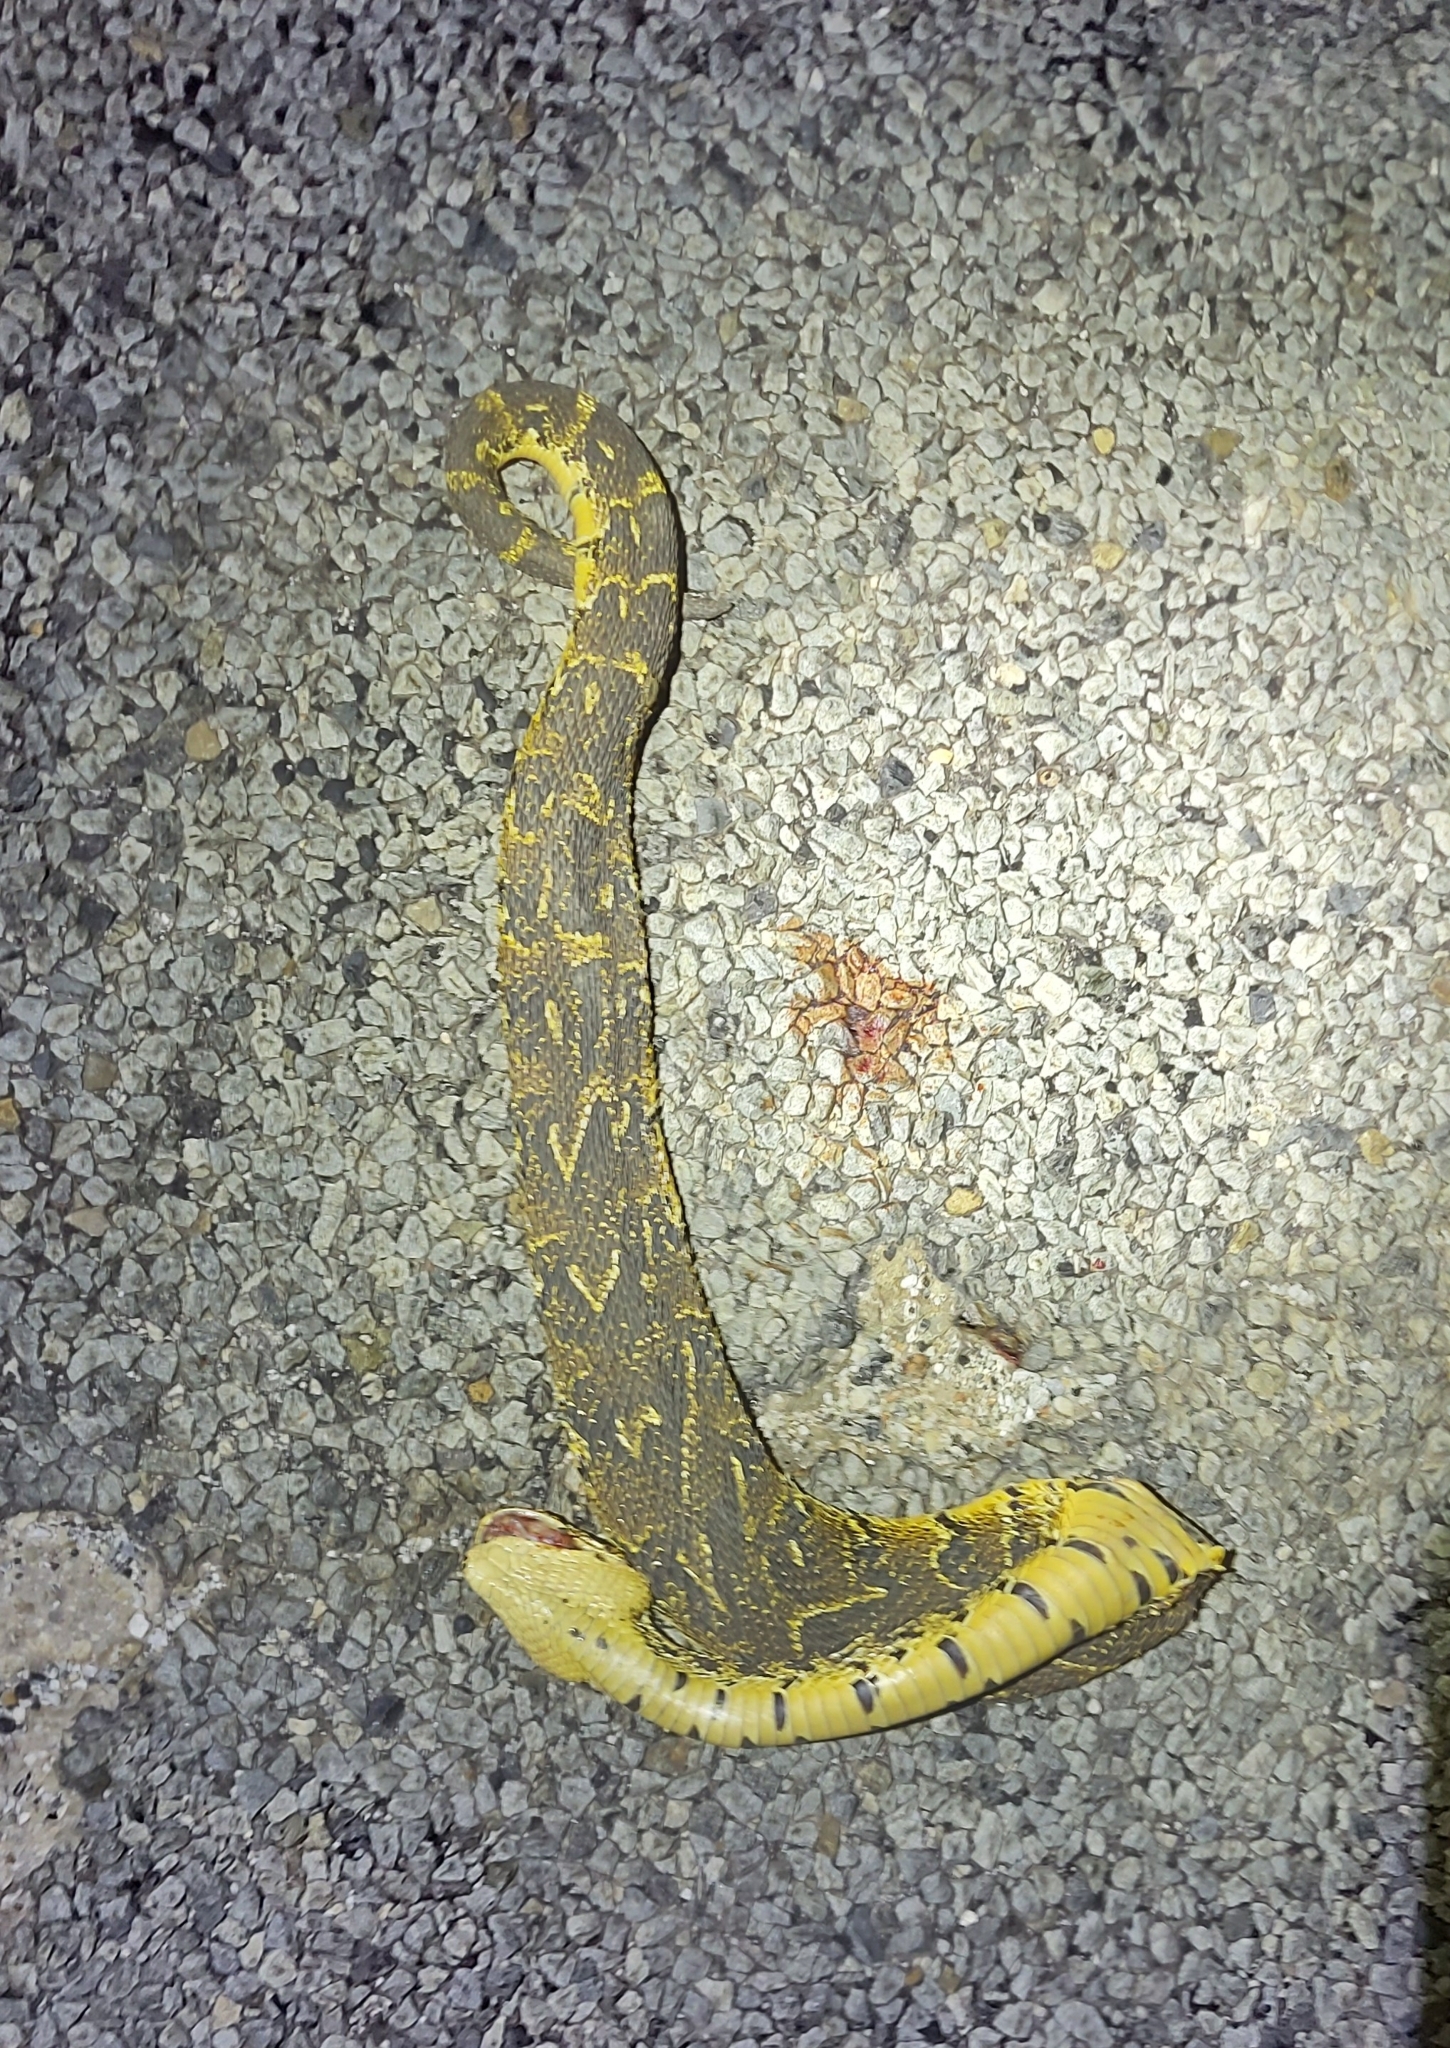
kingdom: Animalia
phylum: Chordata
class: Squamata
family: Viperidae
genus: Bitis
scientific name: Bitis arietans
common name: Puff adder
